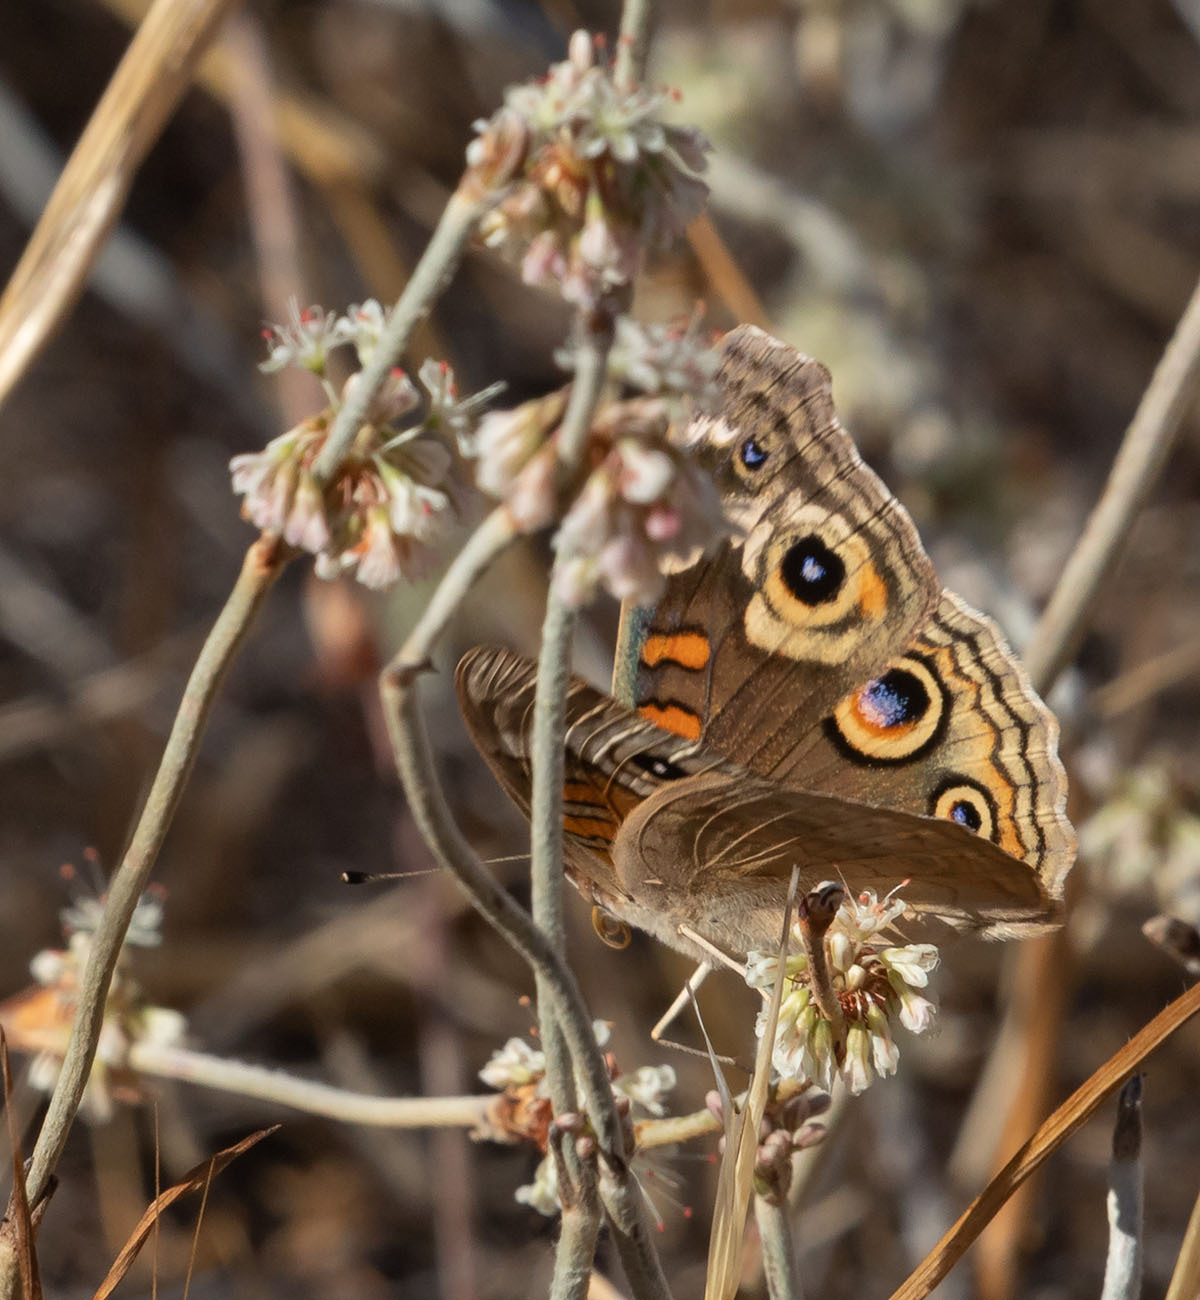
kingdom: Animalia
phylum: Arthropoda
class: Insecta
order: Lepidoptera
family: Nymphalidae
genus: Junonia
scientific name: Junonia grisea
